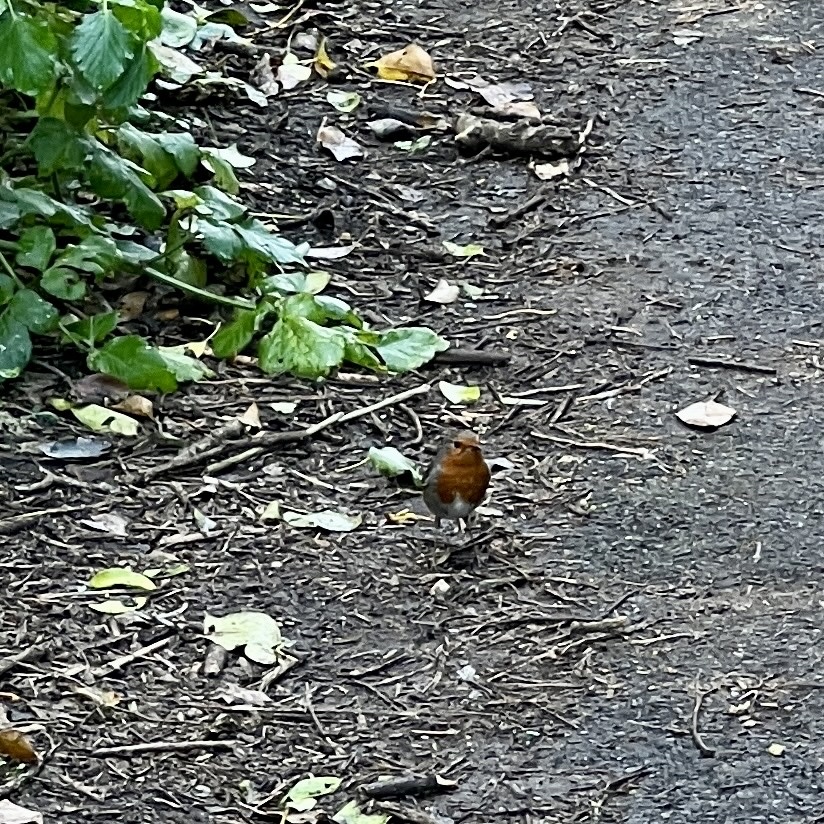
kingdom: Animalia
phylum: Chordata
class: Aves
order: Passeriformes
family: Muscicapidae
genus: Erithacus
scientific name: Erithacus rubecula
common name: European robin
